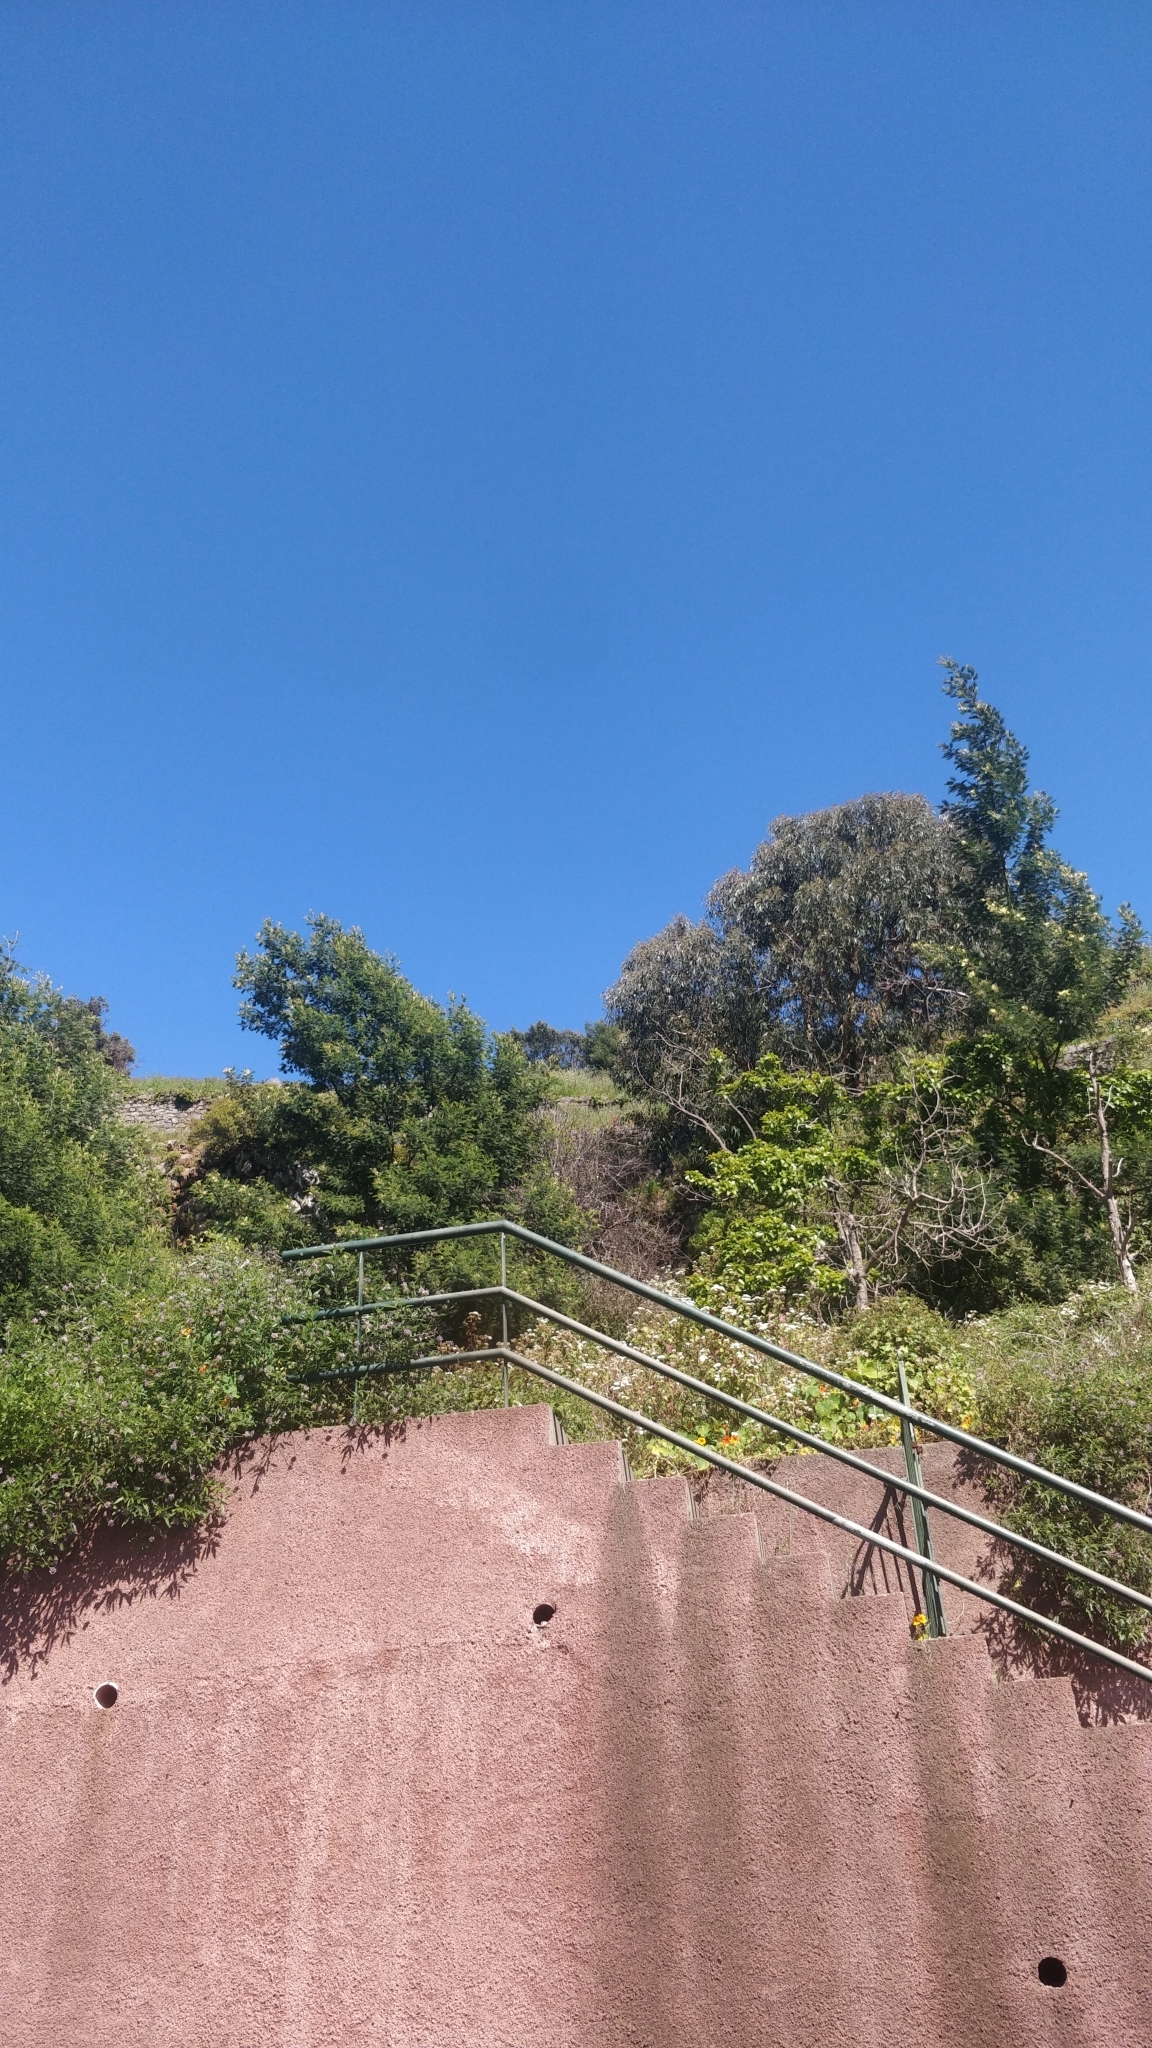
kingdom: Plantae
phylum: Tracheophyta
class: Magnoliopsida
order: Fabales
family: Fabaceae
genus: Acacia
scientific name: Acacia mearnsii
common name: Black wattle
